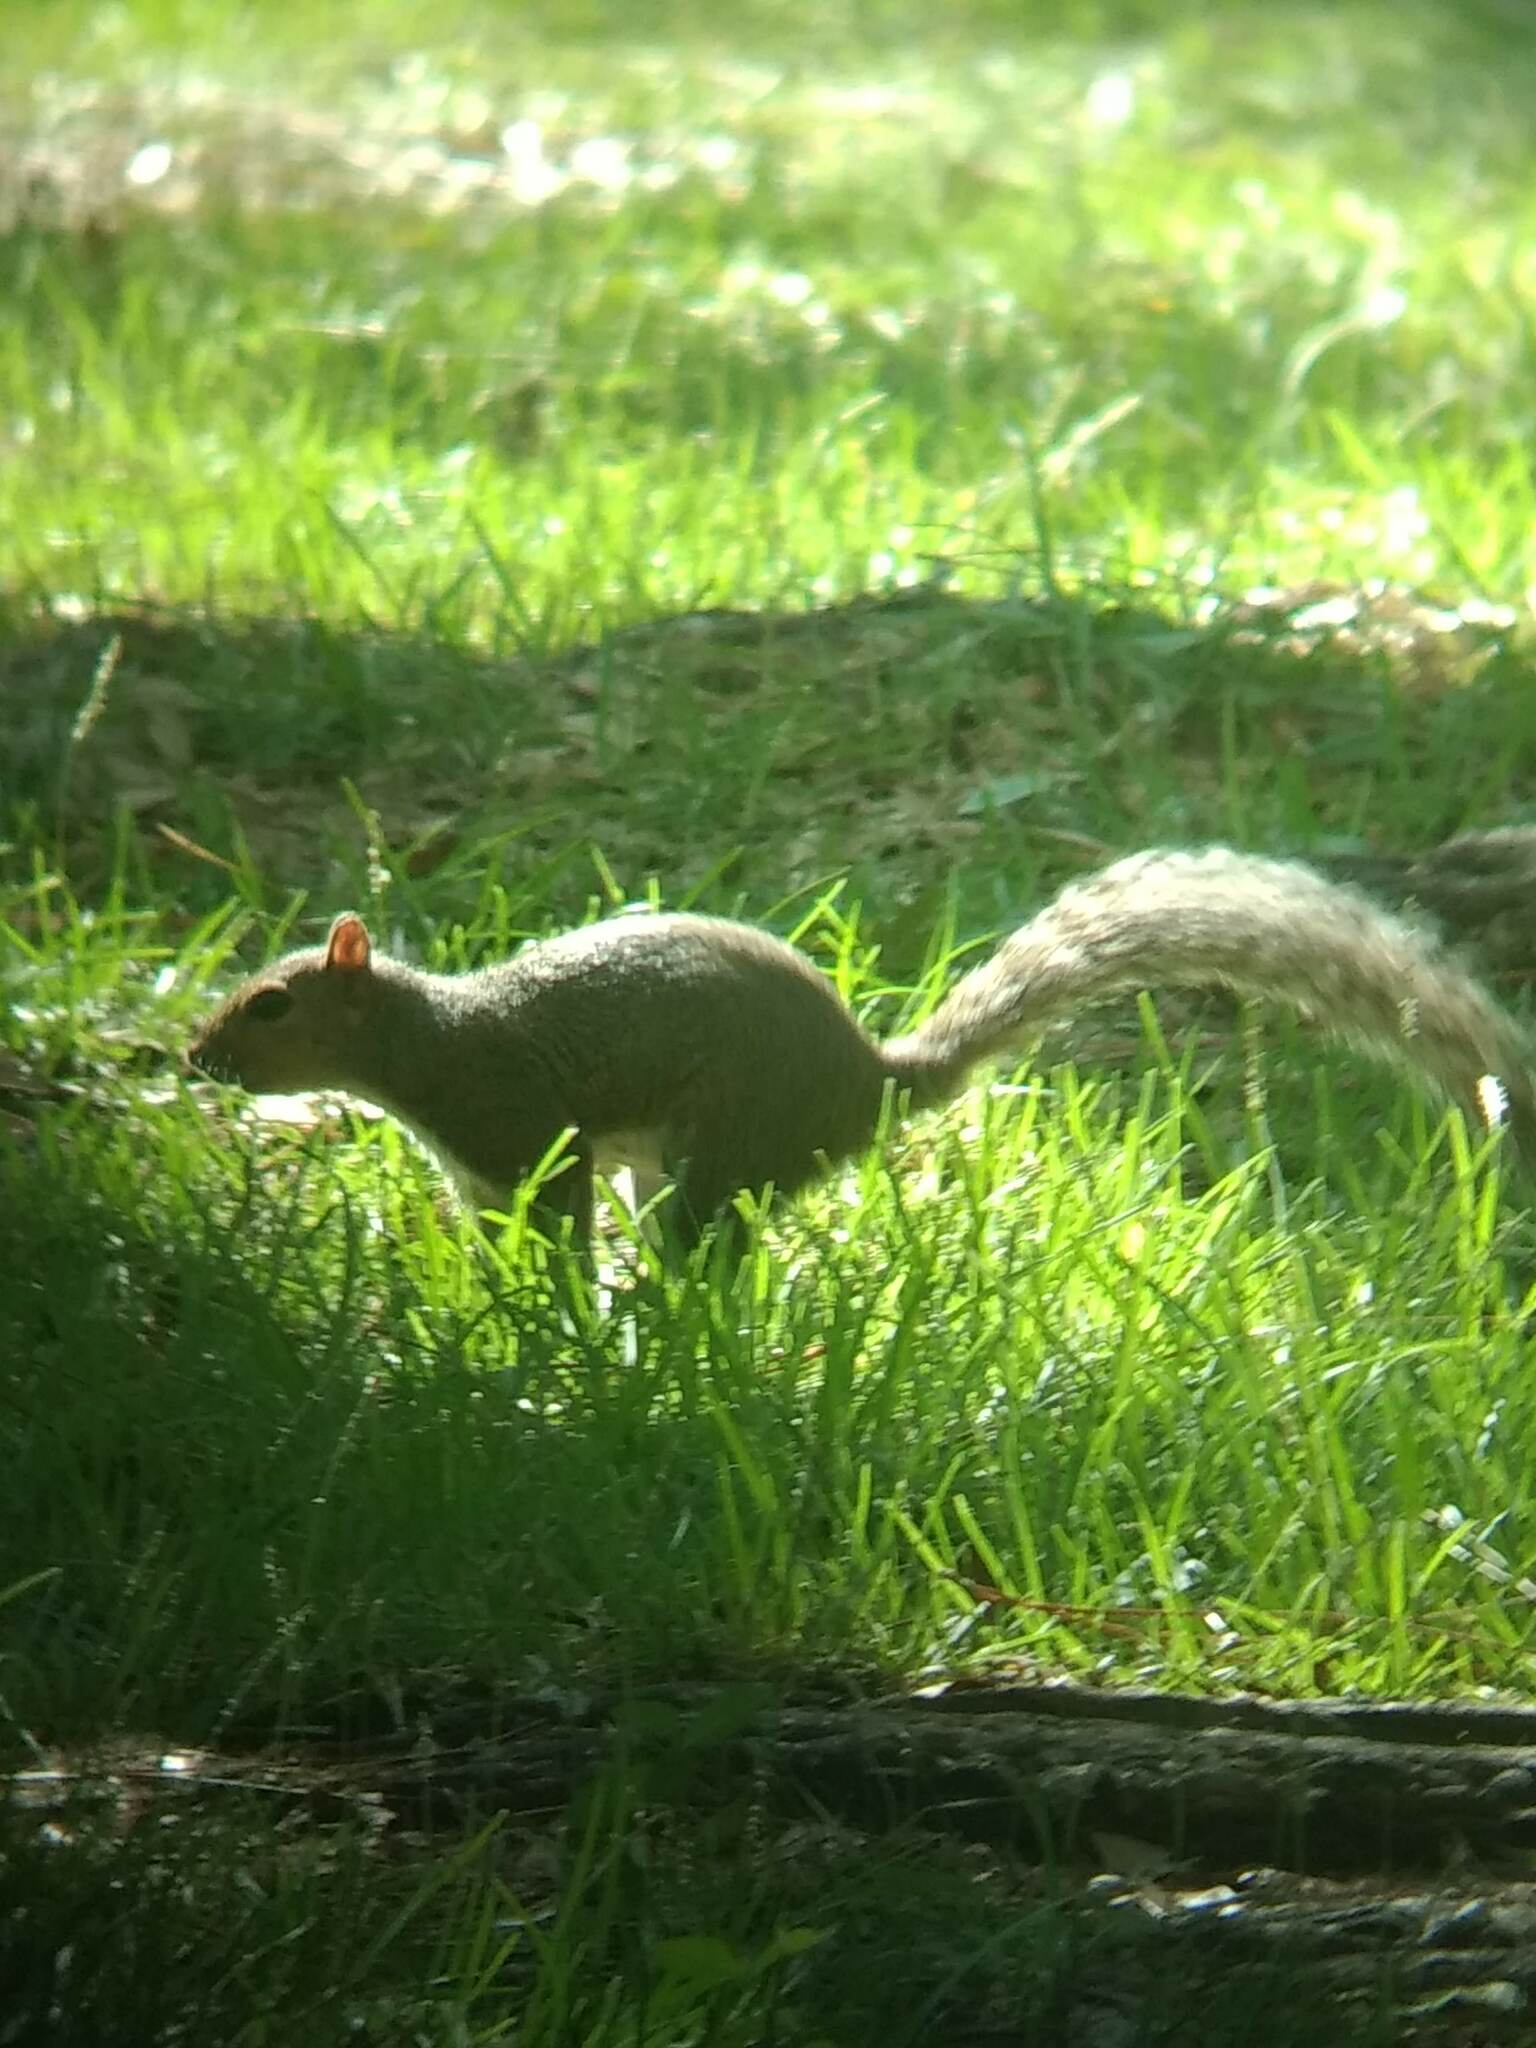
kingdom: Animalia
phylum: Chordata
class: Mammalia
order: Rodentia
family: Sciuridae
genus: Sciurus
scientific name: Sciurus carolinensis
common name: Eastern gray squirrel
